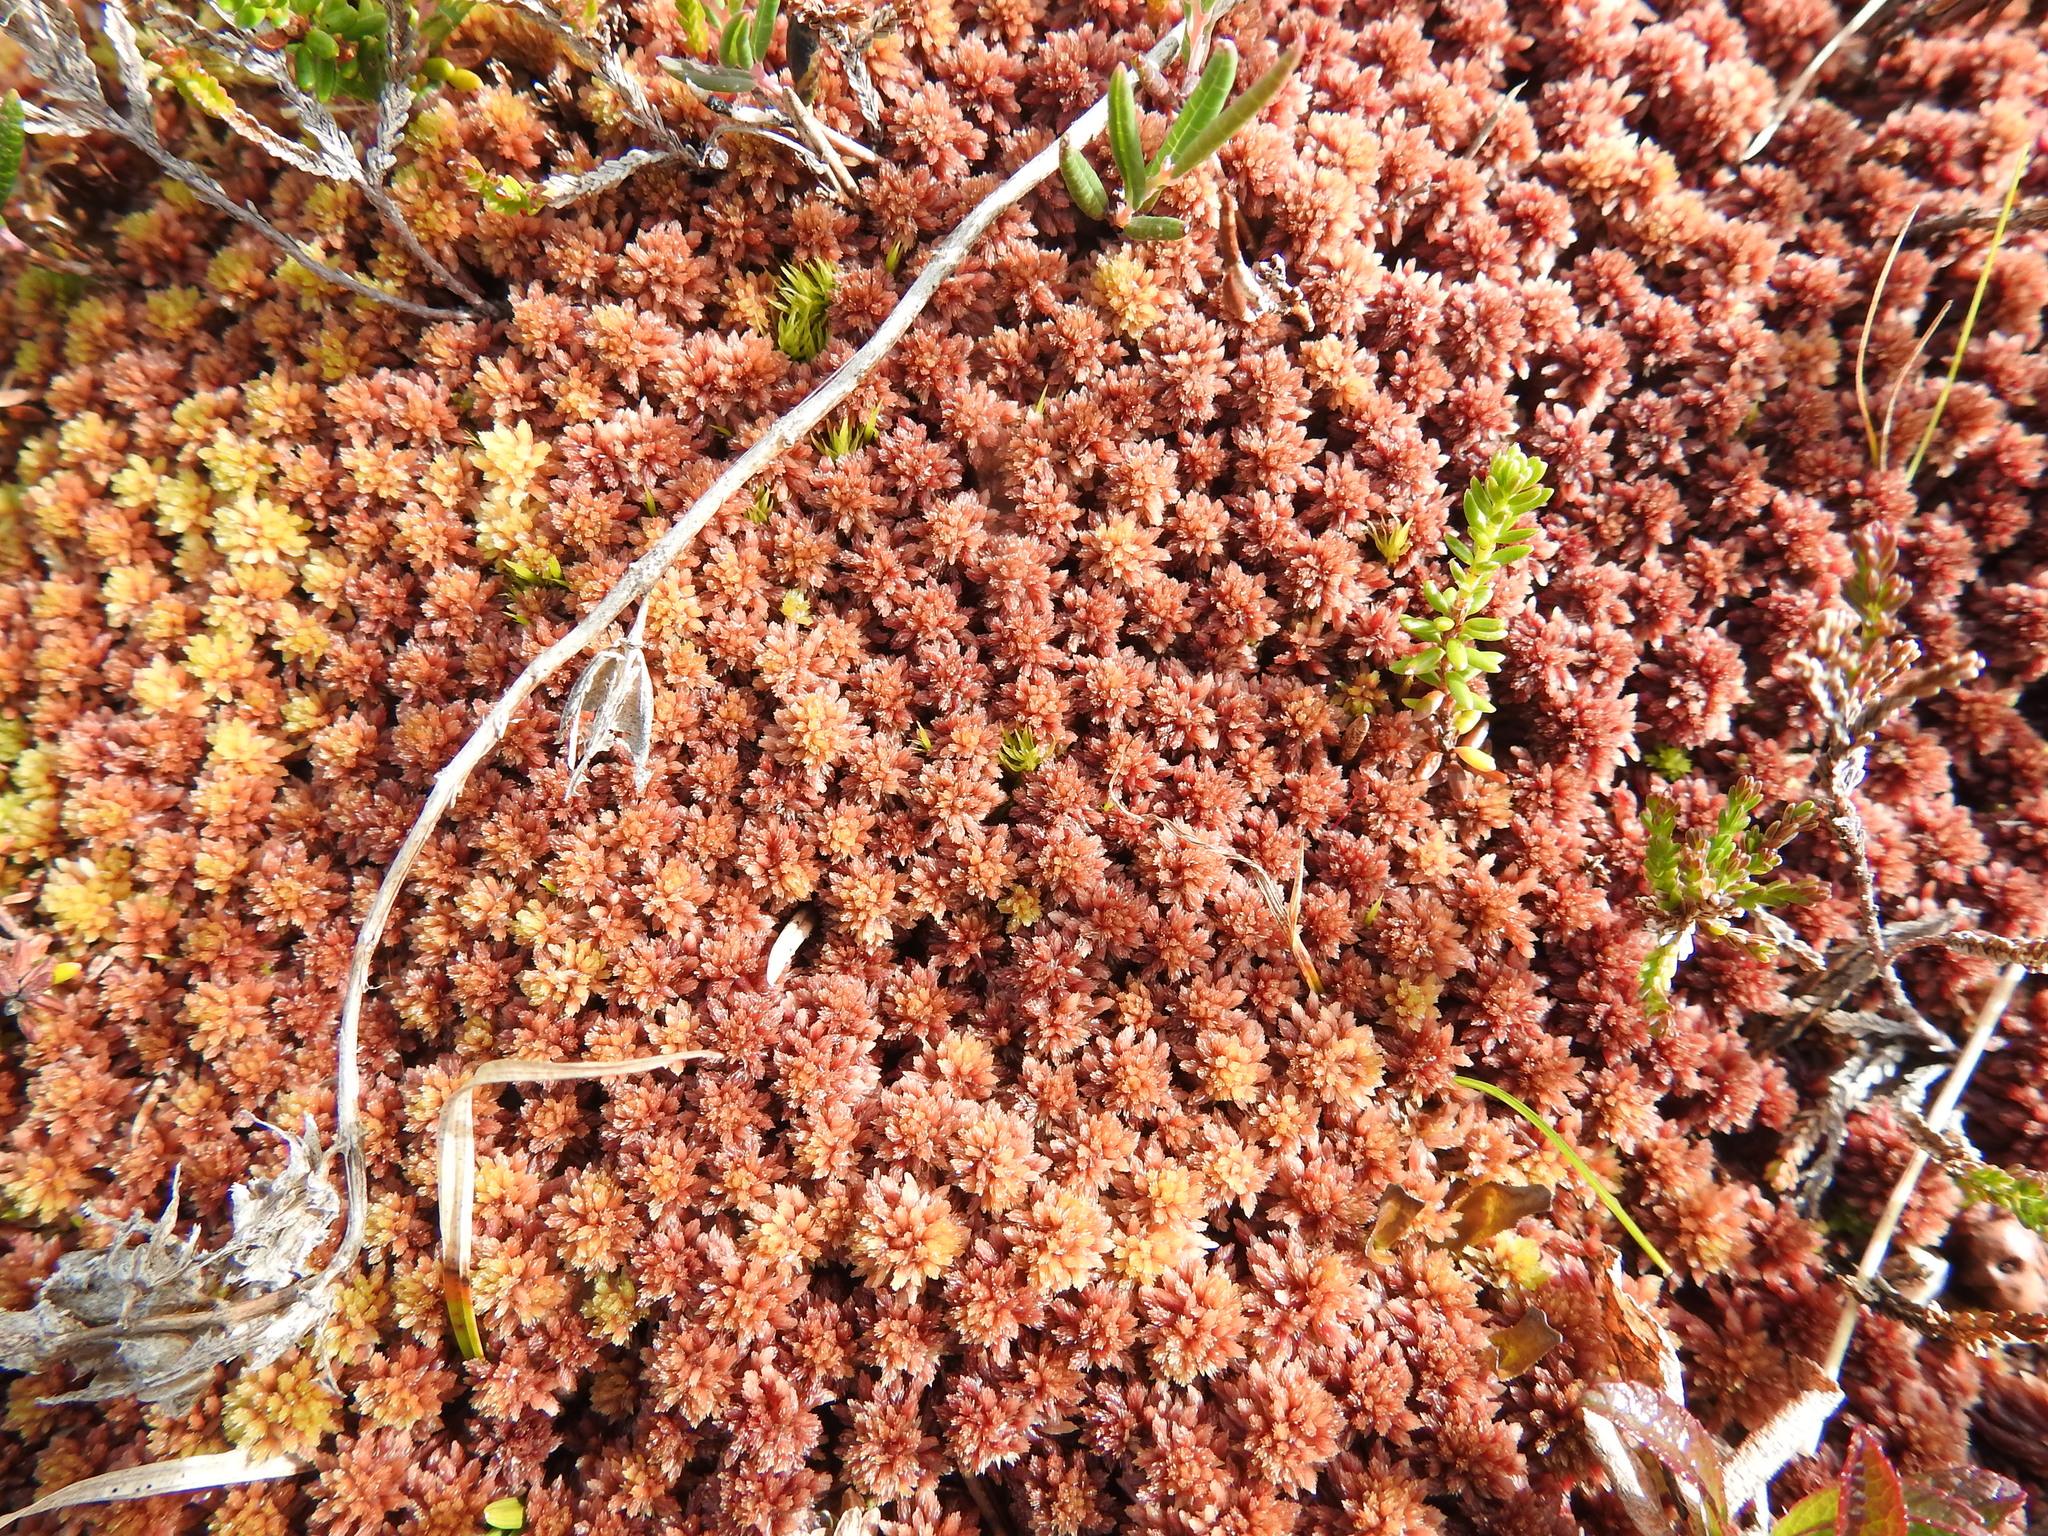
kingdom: Plantae
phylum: Bryophyta
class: Sphagnopsida
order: Sphagnales
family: Sphagnaceae
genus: Sphagnum
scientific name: Sphagnum capillifolium
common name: Small red peat moss
